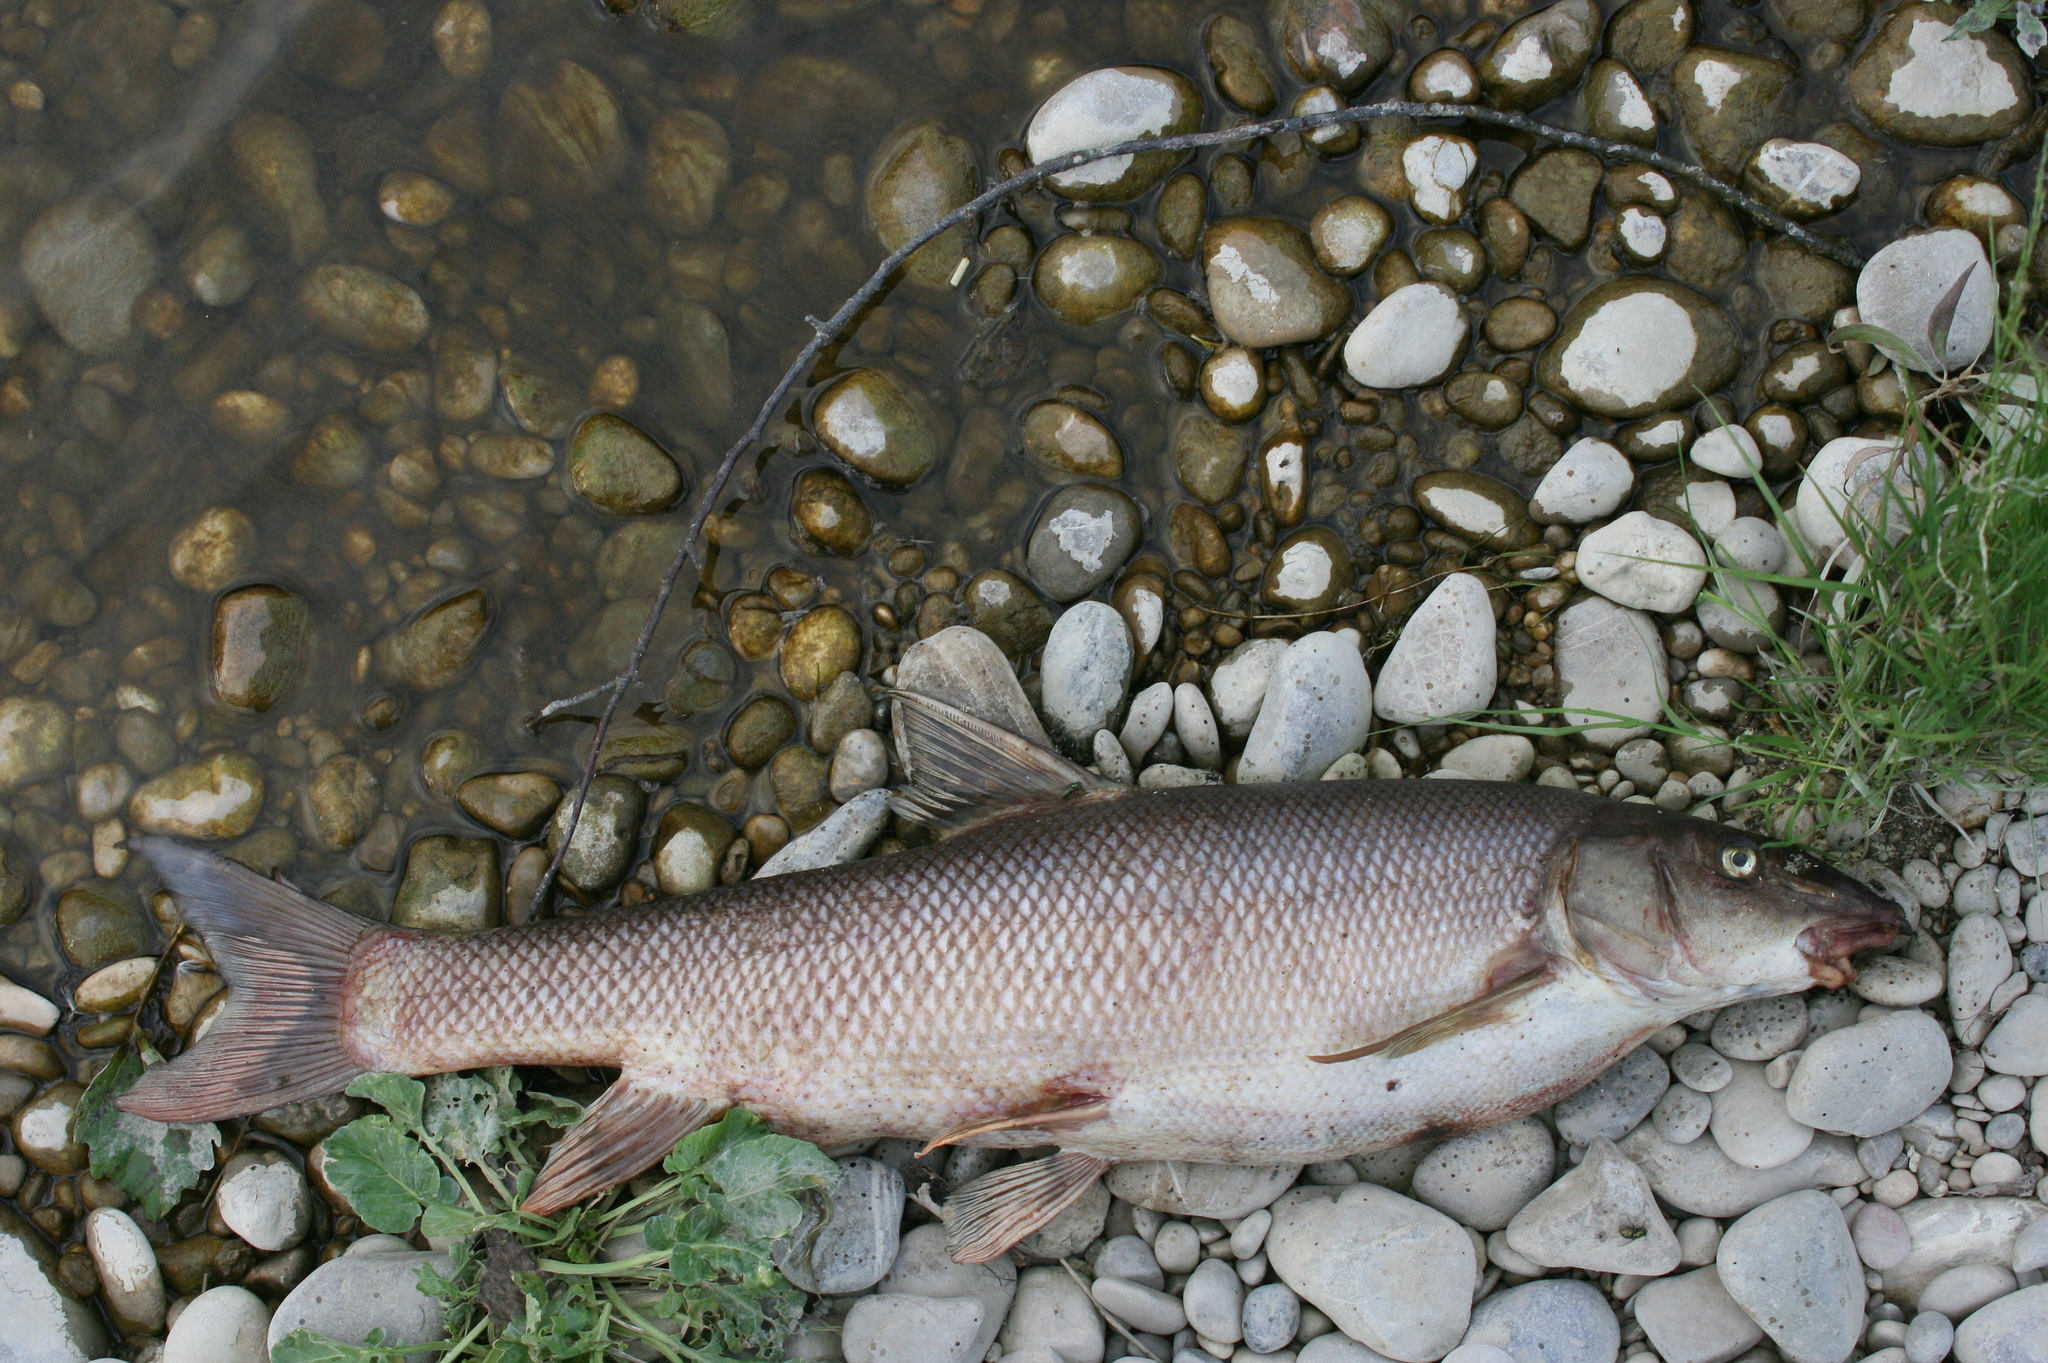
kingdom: Animalia
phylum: Chordata
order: Cypriniformes
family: Cyprinidae
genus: Barbus
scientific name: Barbus barbus
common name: Barbel
